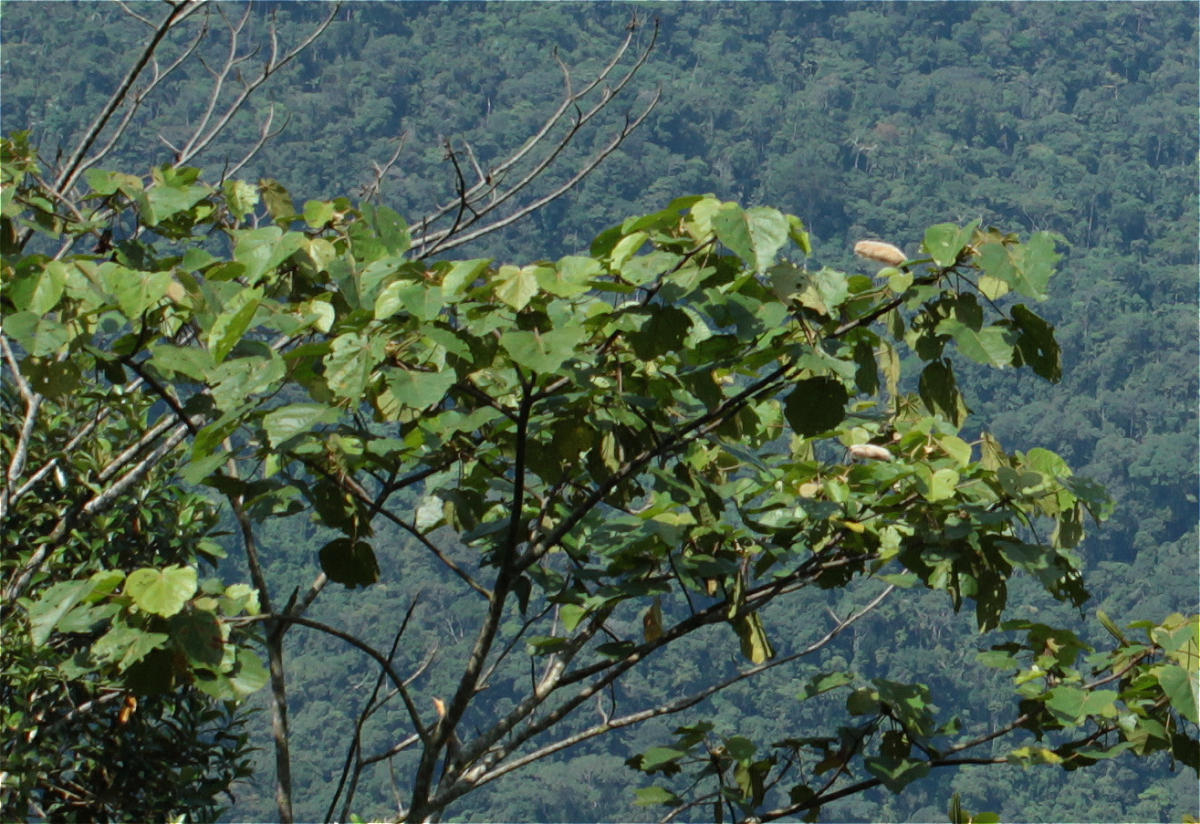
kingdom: Plantae
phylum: Tracheophyta
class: Magnoliopsida
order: Malvales
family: Malvaceae
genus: Ochroma
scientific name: Ochroma pyramidale
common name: Balsa
